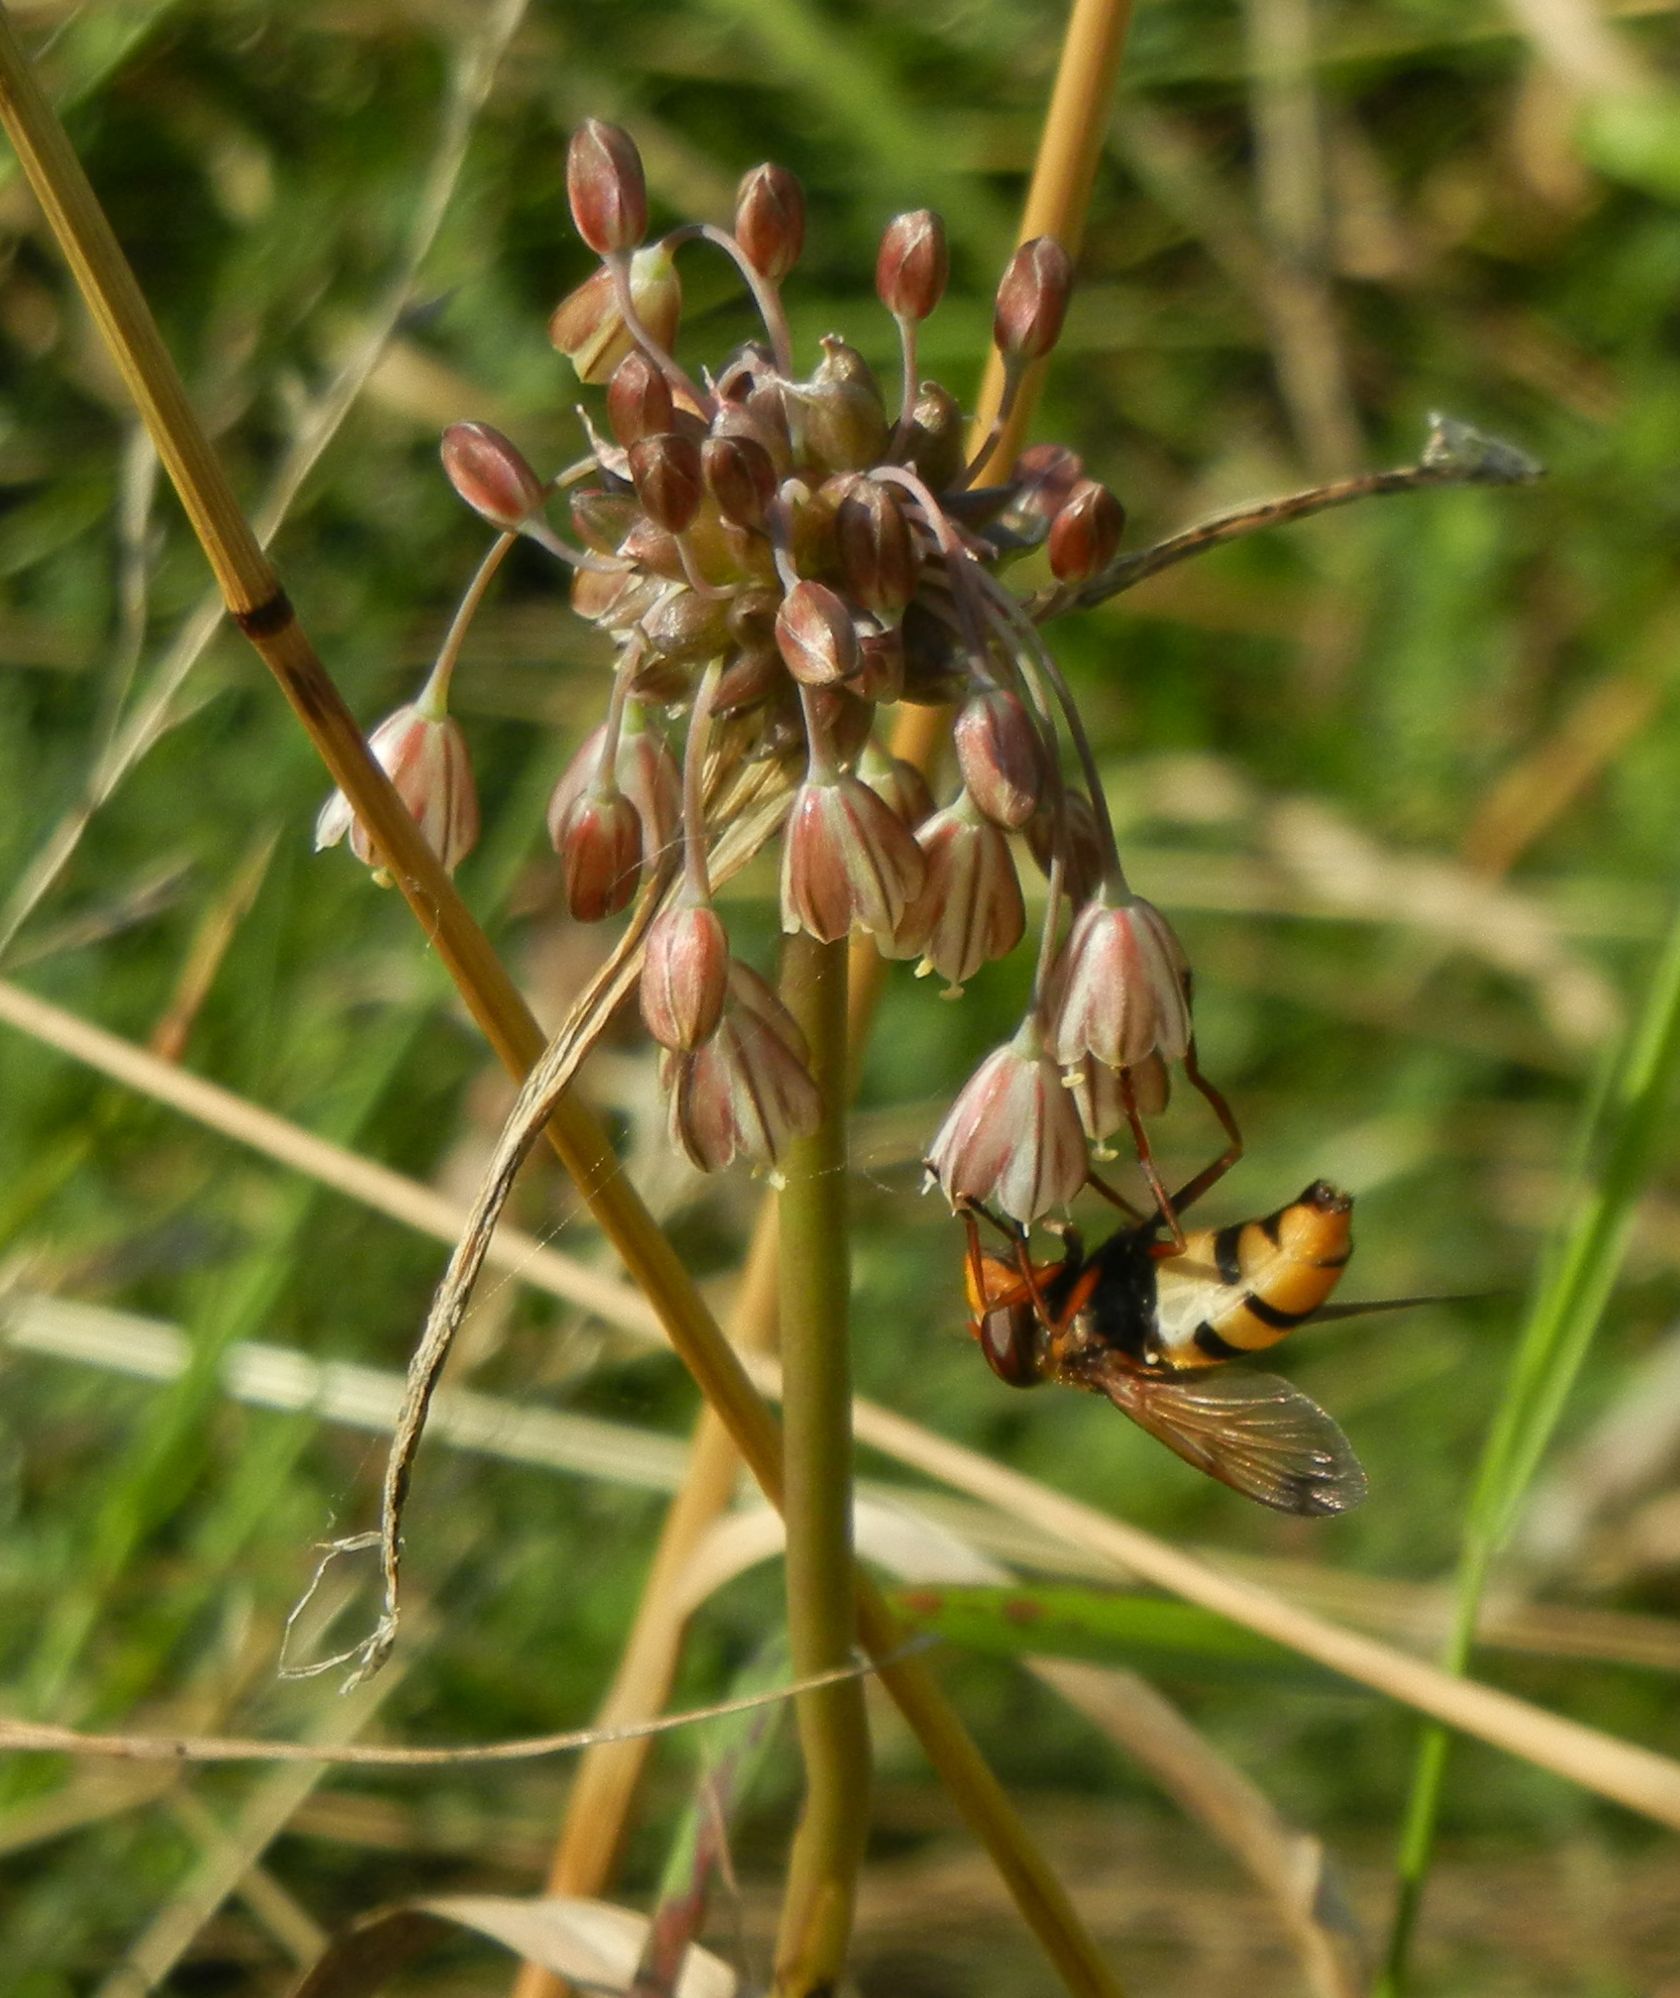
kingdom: Plantae
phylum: Tracheophyta
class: Liliopsida
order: Asparagales
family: Amaryllidaceae
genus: Allium
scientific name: Allium oleraceum
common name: Field garlic
